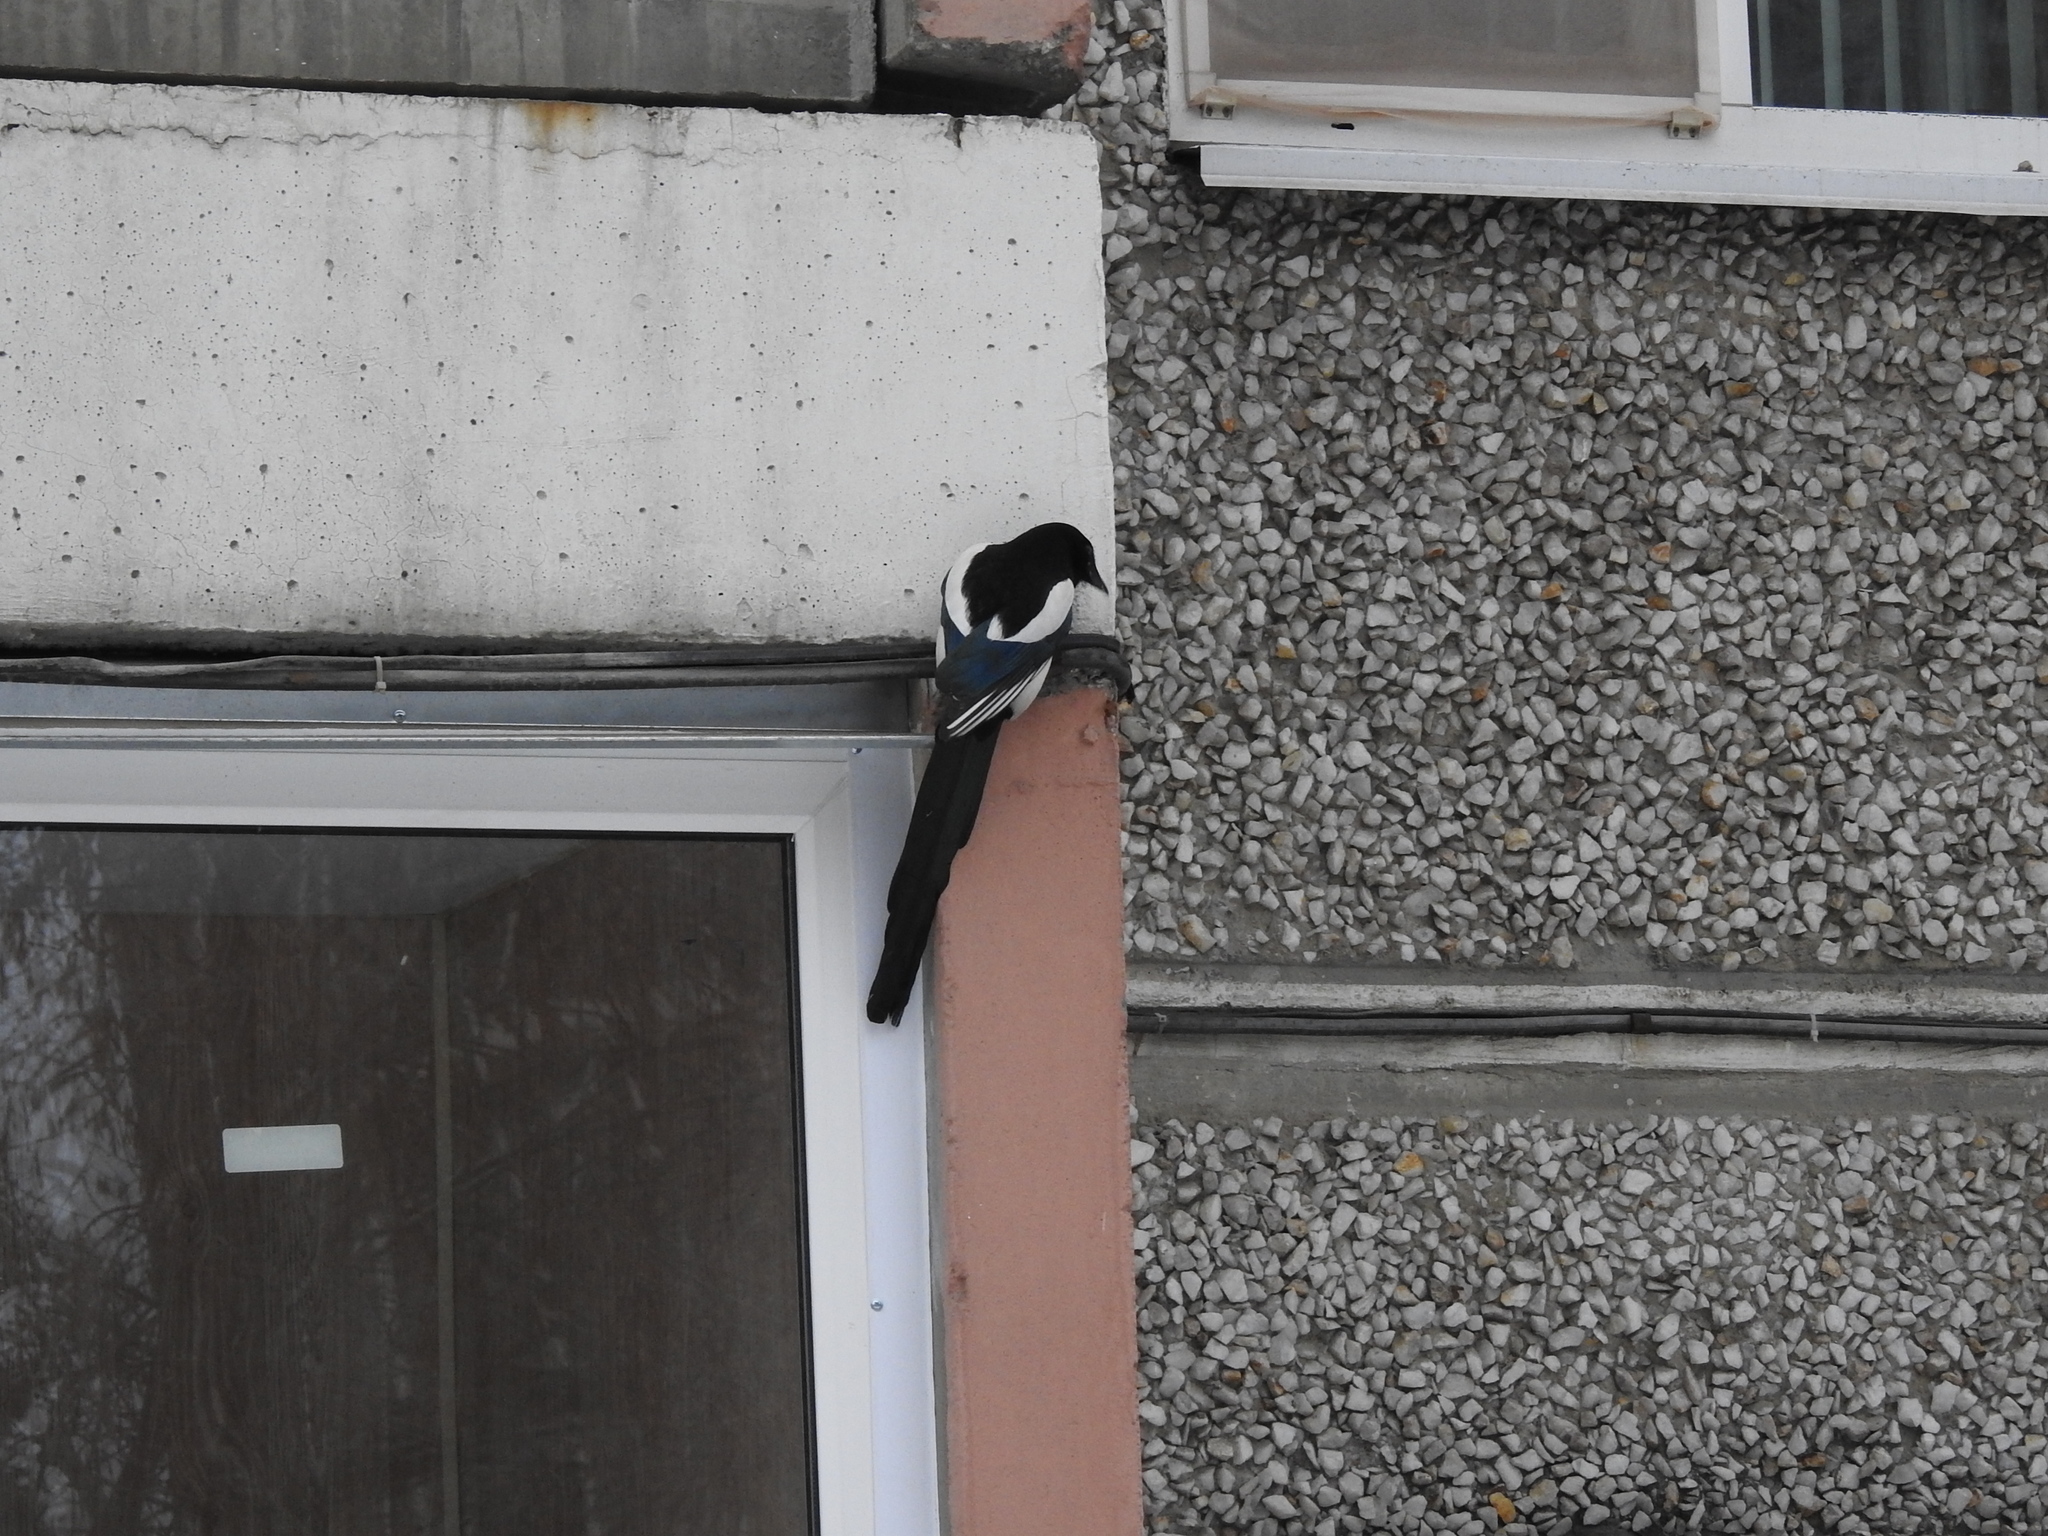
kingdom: Animalia
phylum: Chordata
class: Aves
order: Passeriformes
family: Corvidae
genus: Pica
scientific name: Pica pica
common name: Eurasian magpie
